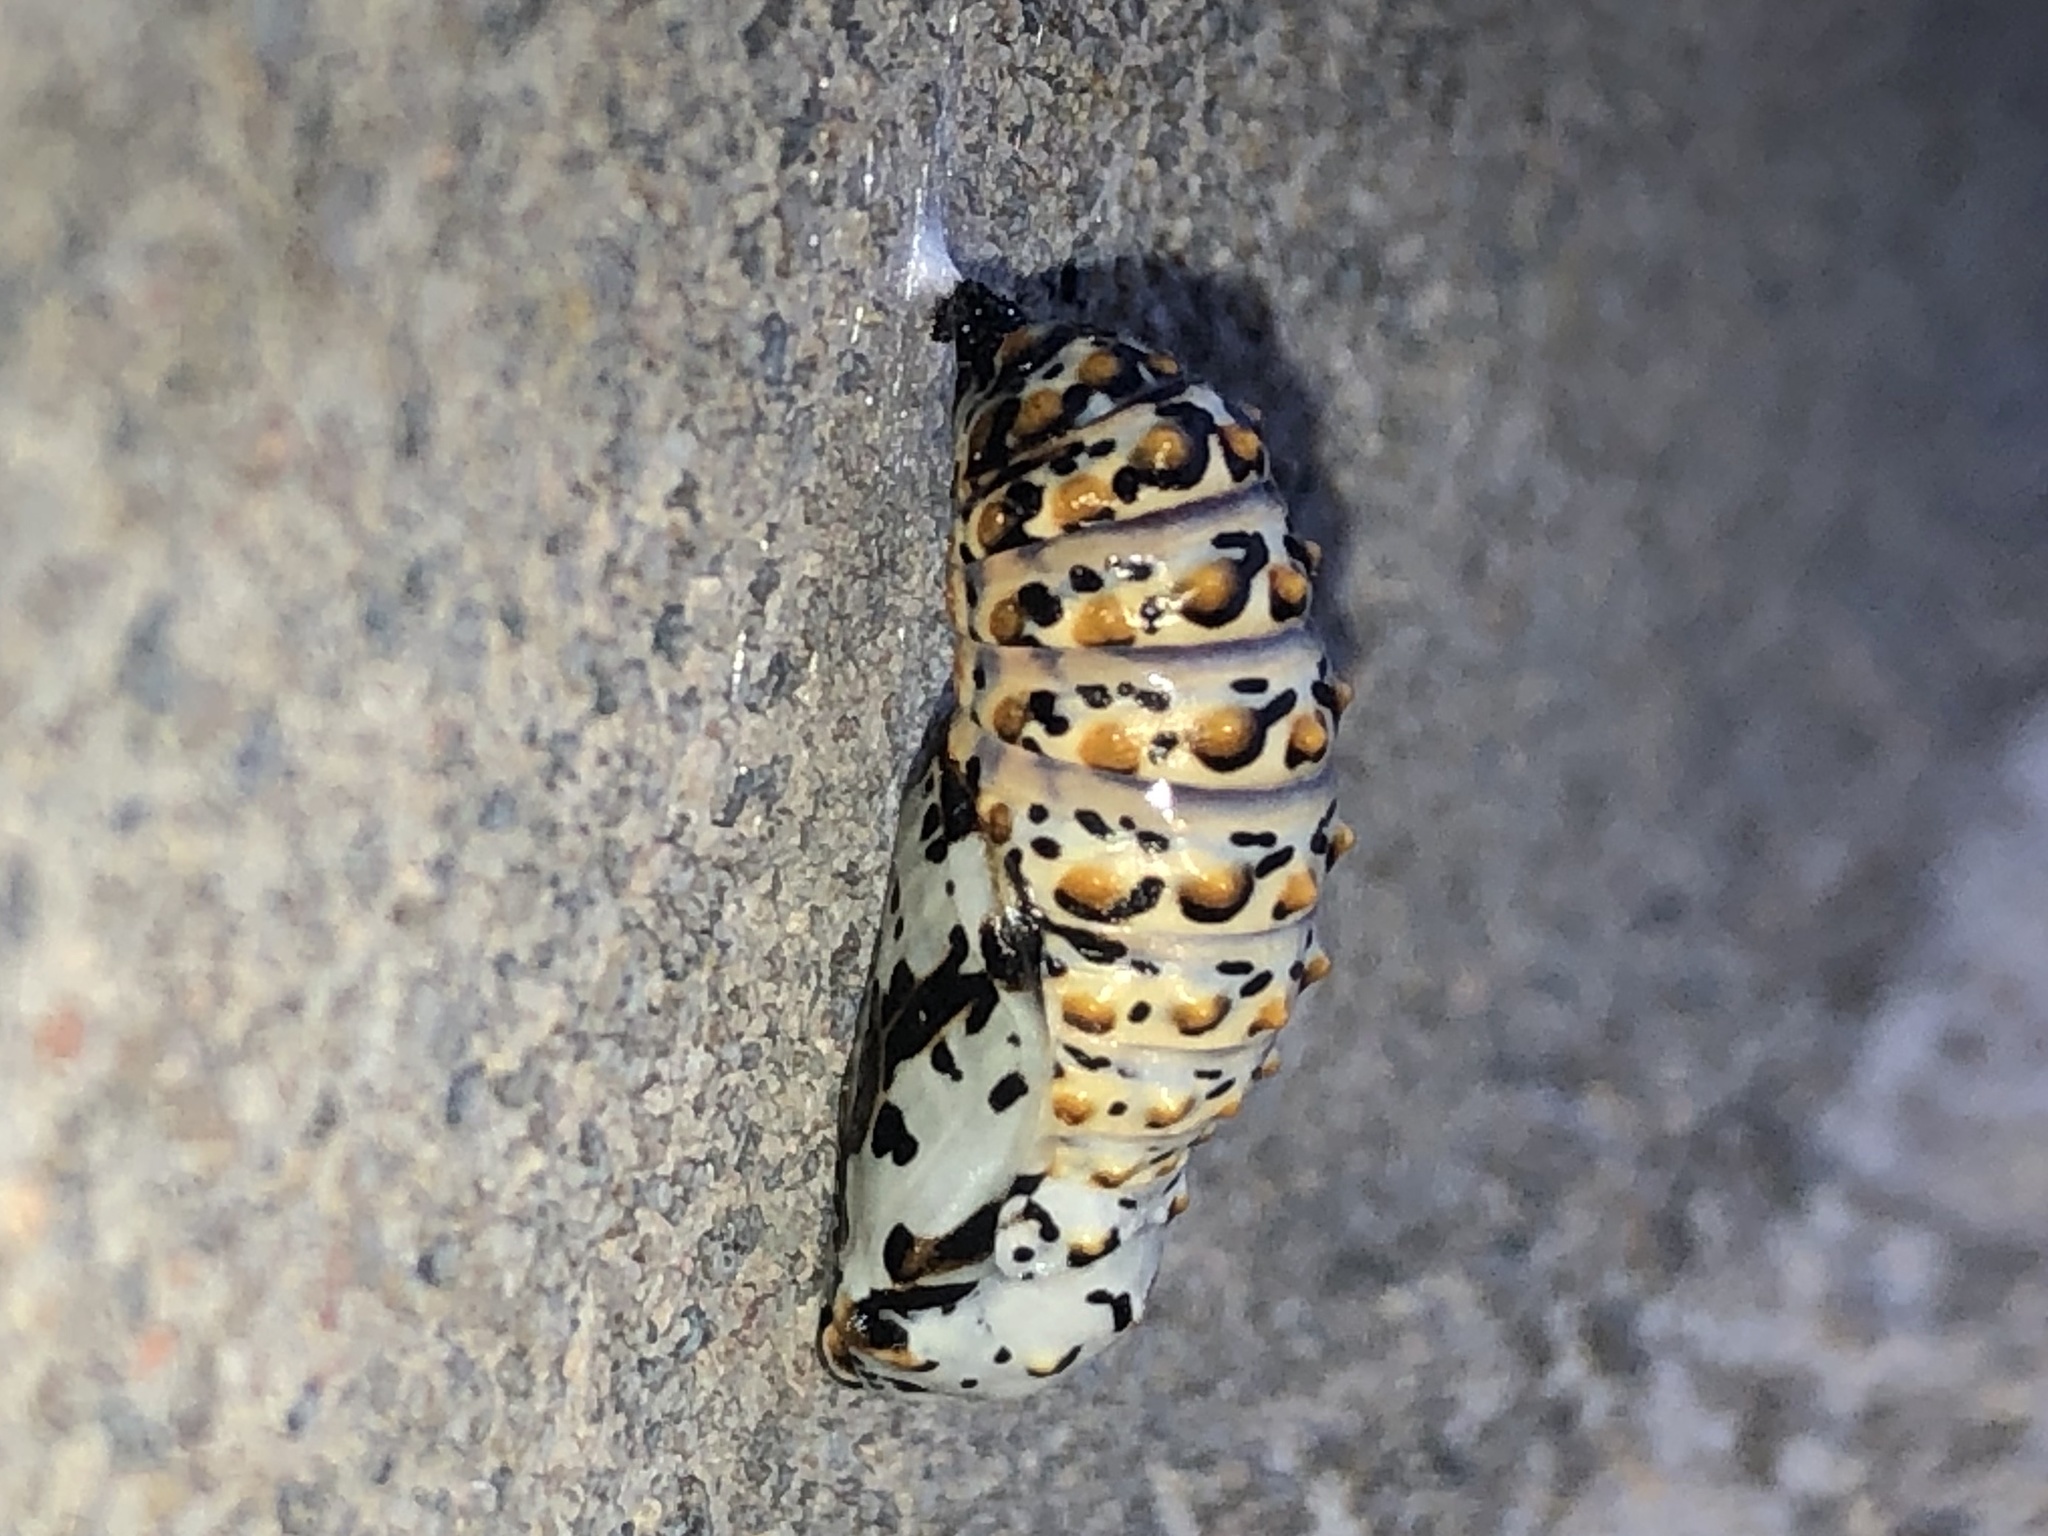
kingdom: Animalia
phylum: Arthropoda
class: Insecta
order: Lepidoptera
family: Nymphalidae
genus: Euphydryas
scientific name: Euphydryas phaeton
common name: Baltimore checkerspot
